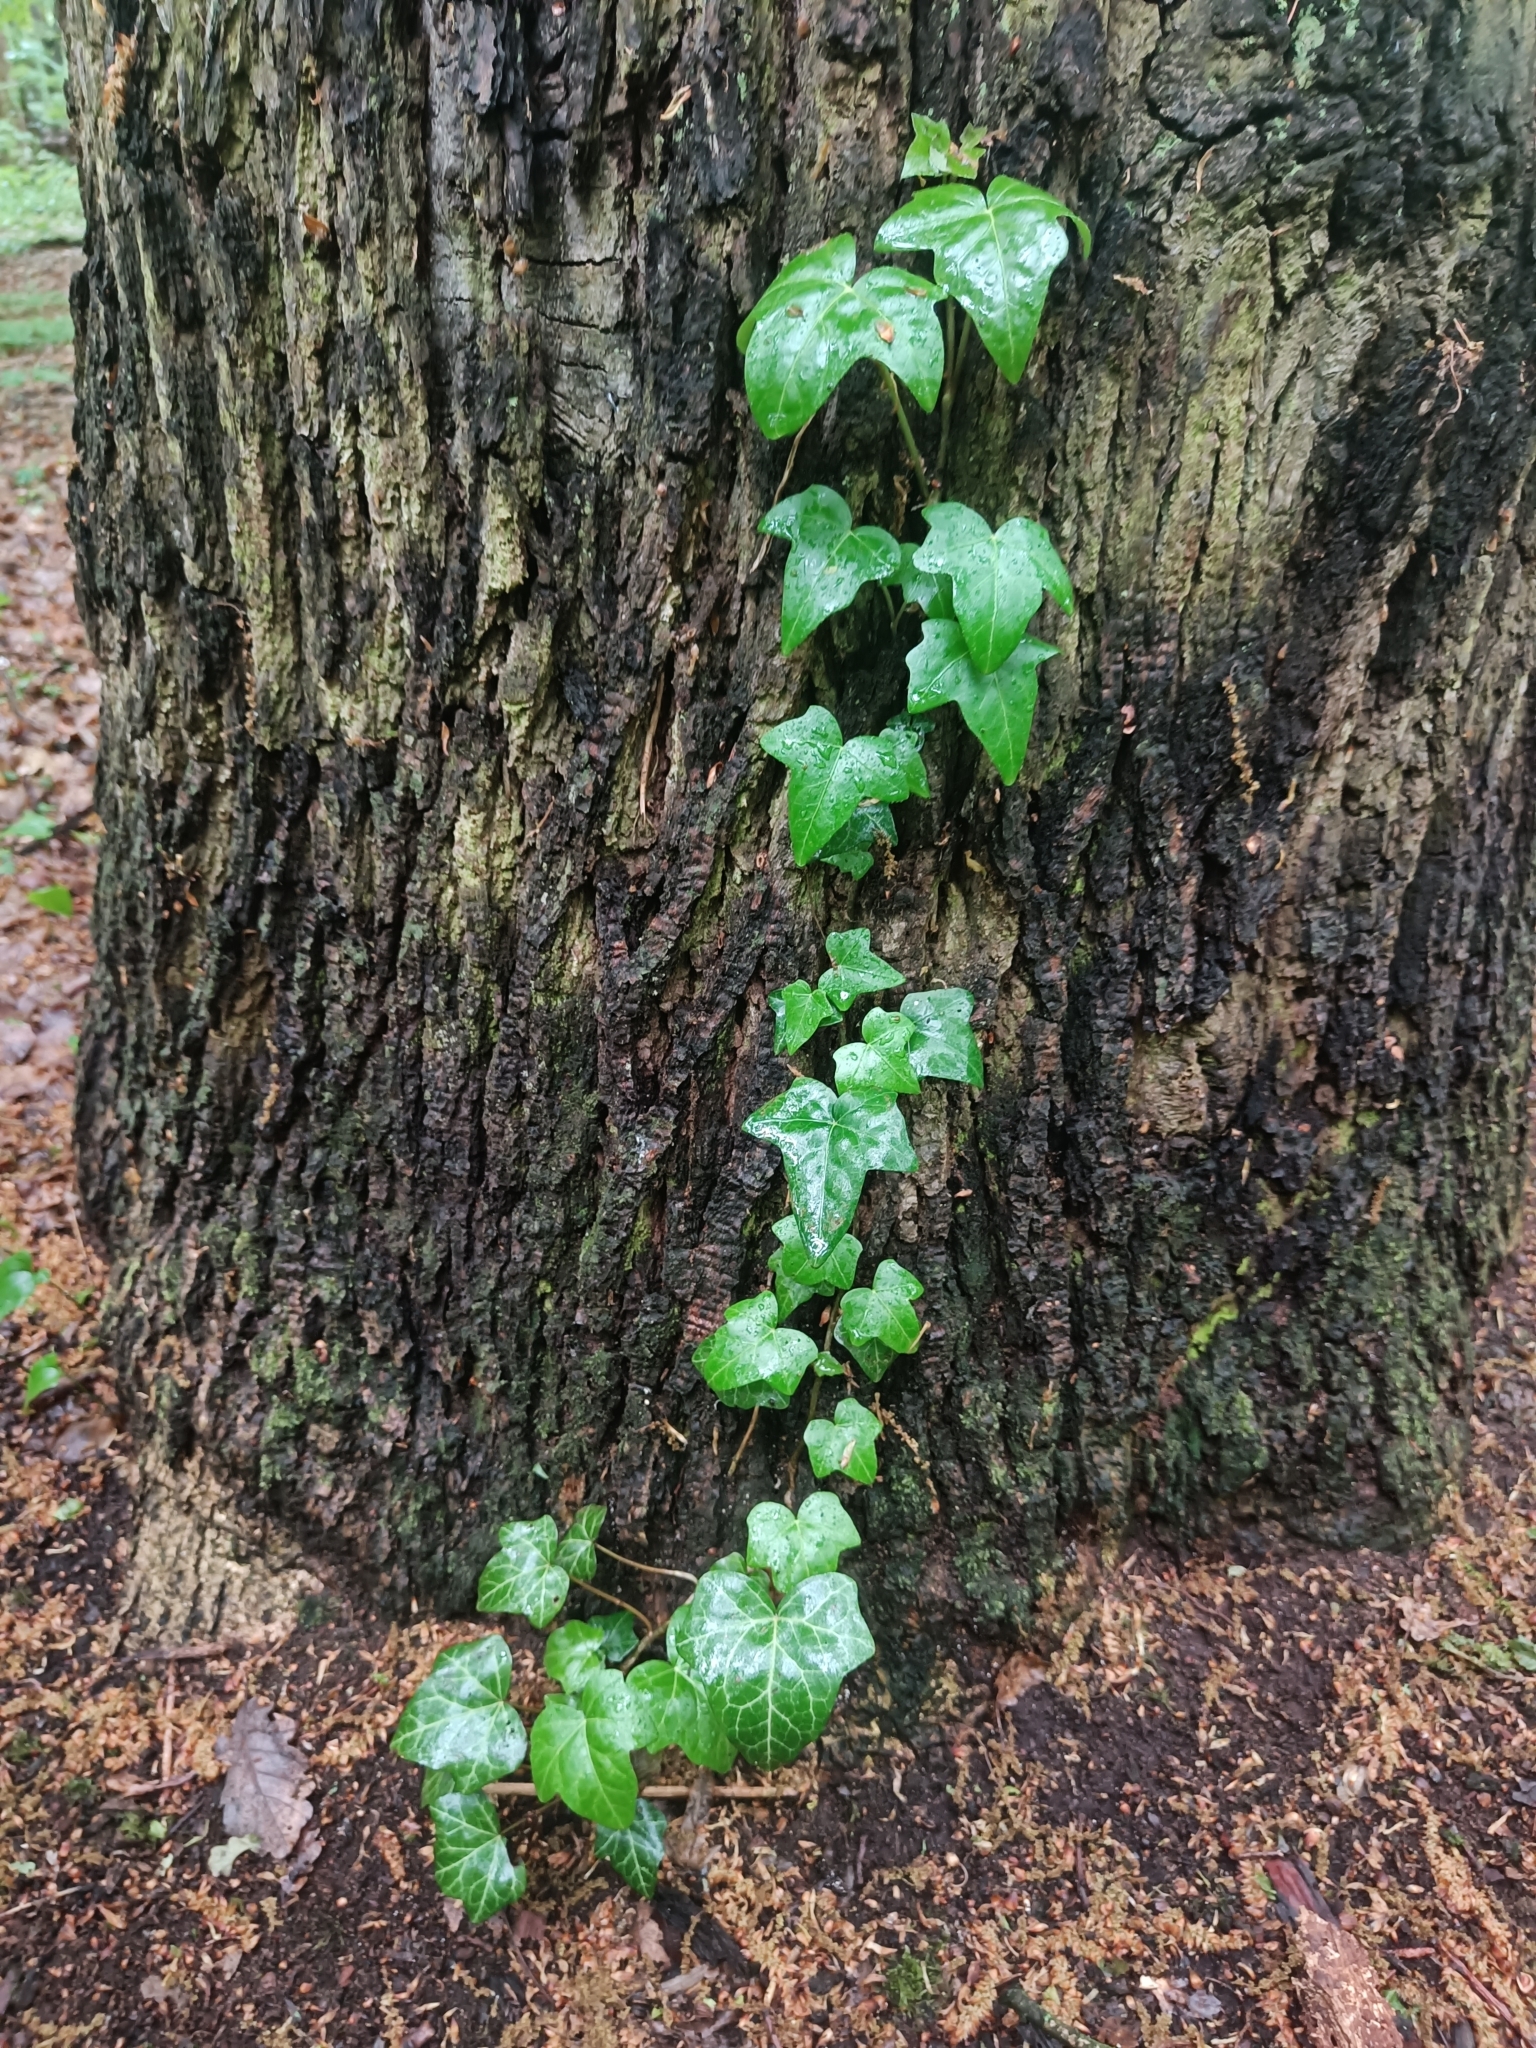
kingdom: Plantae
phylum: Tracheophyta
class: Magnoliopsida
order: Apiales
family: Araliaceae
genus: Hedera
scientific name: Hedera helix
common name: Ivy
